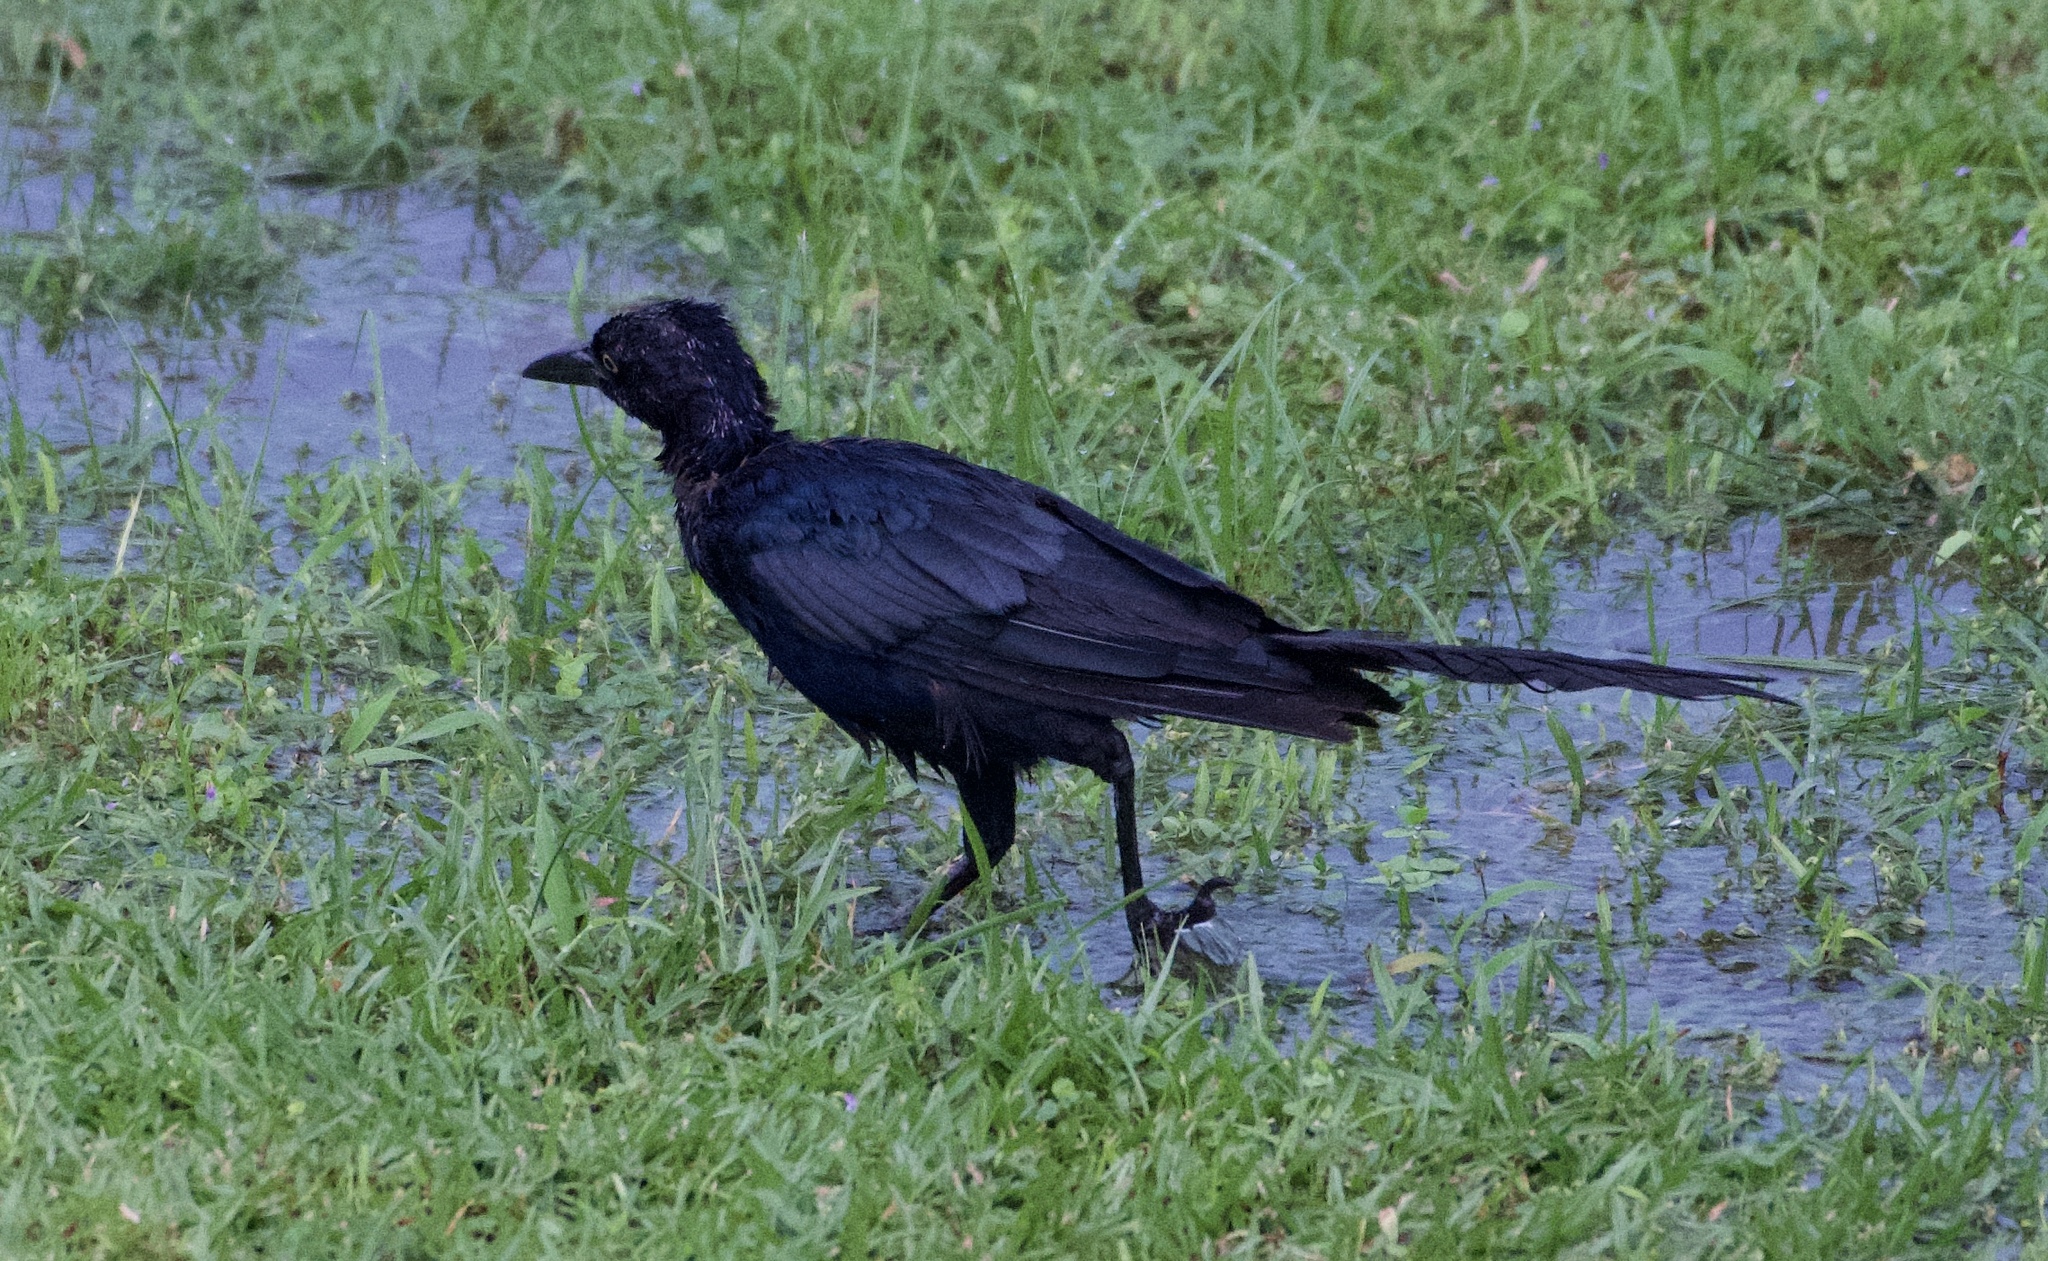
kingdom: Animalia
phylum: Chordata
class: Aves
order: Passeriformes
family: Icteridae
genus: Quiscalus
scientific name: Quiscalus mexicanus
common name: Great-tailed grackle
